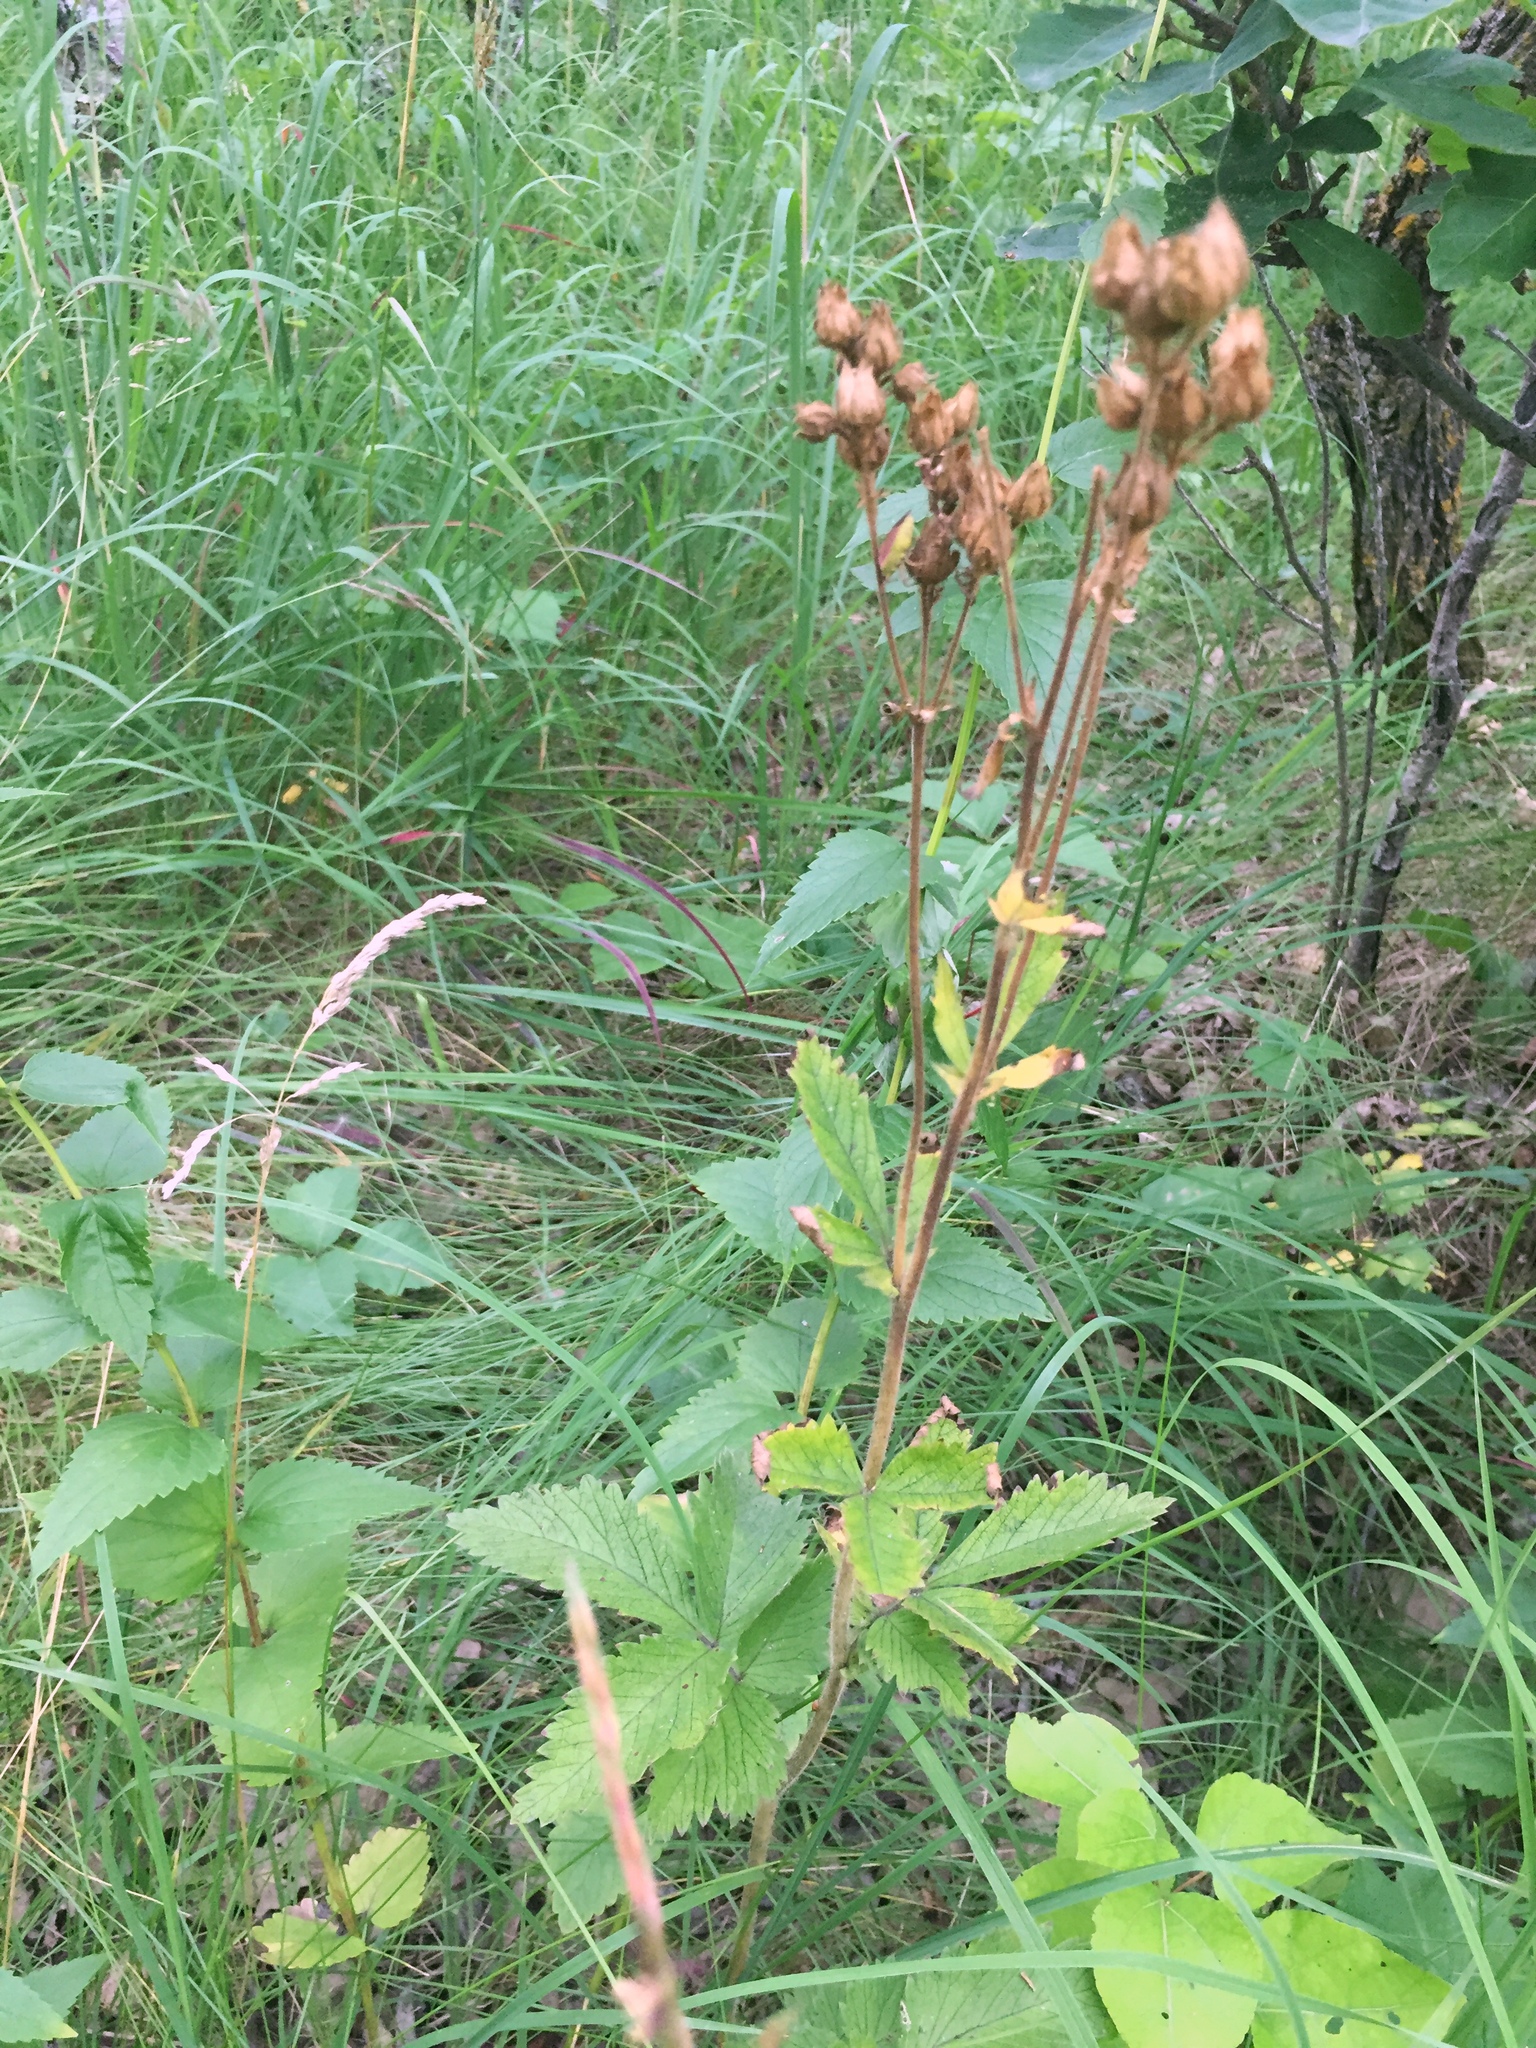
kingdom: Plantae
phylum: Tracheophyta
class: Magnoliopsida
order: Rosales
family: Rosaceae
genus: Drymocallis
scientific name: Drymocallis arguta
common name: Tall cinquefoil
